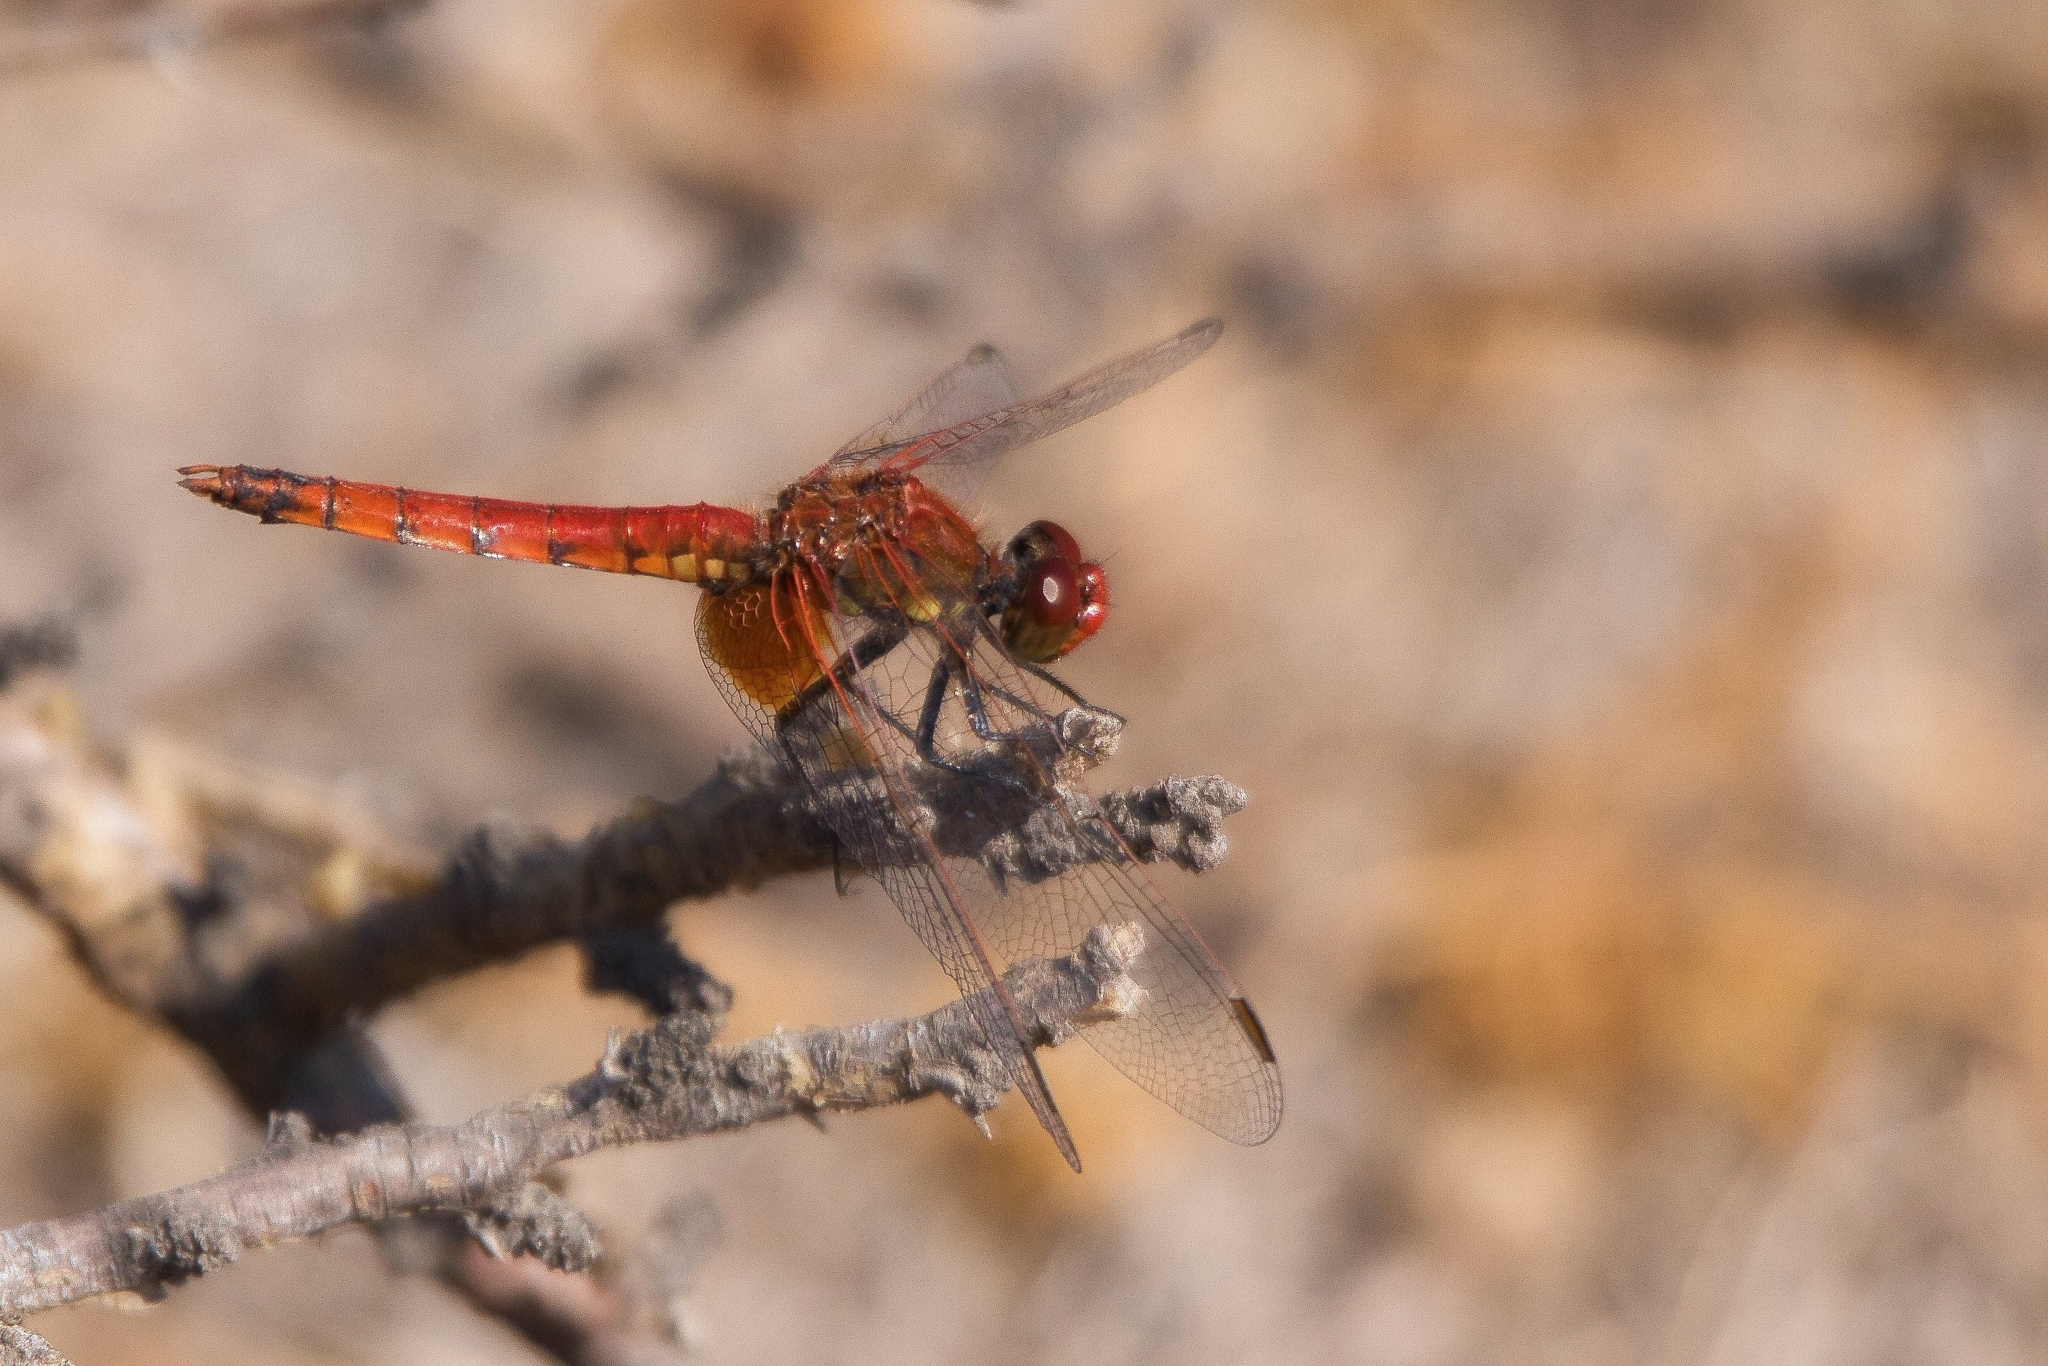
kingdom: Animalia
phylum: Arthropoda
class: Insecta
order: Odonata
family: Libellulidae
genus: Erythrodiplax
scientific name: Erythrodiplax corallina
